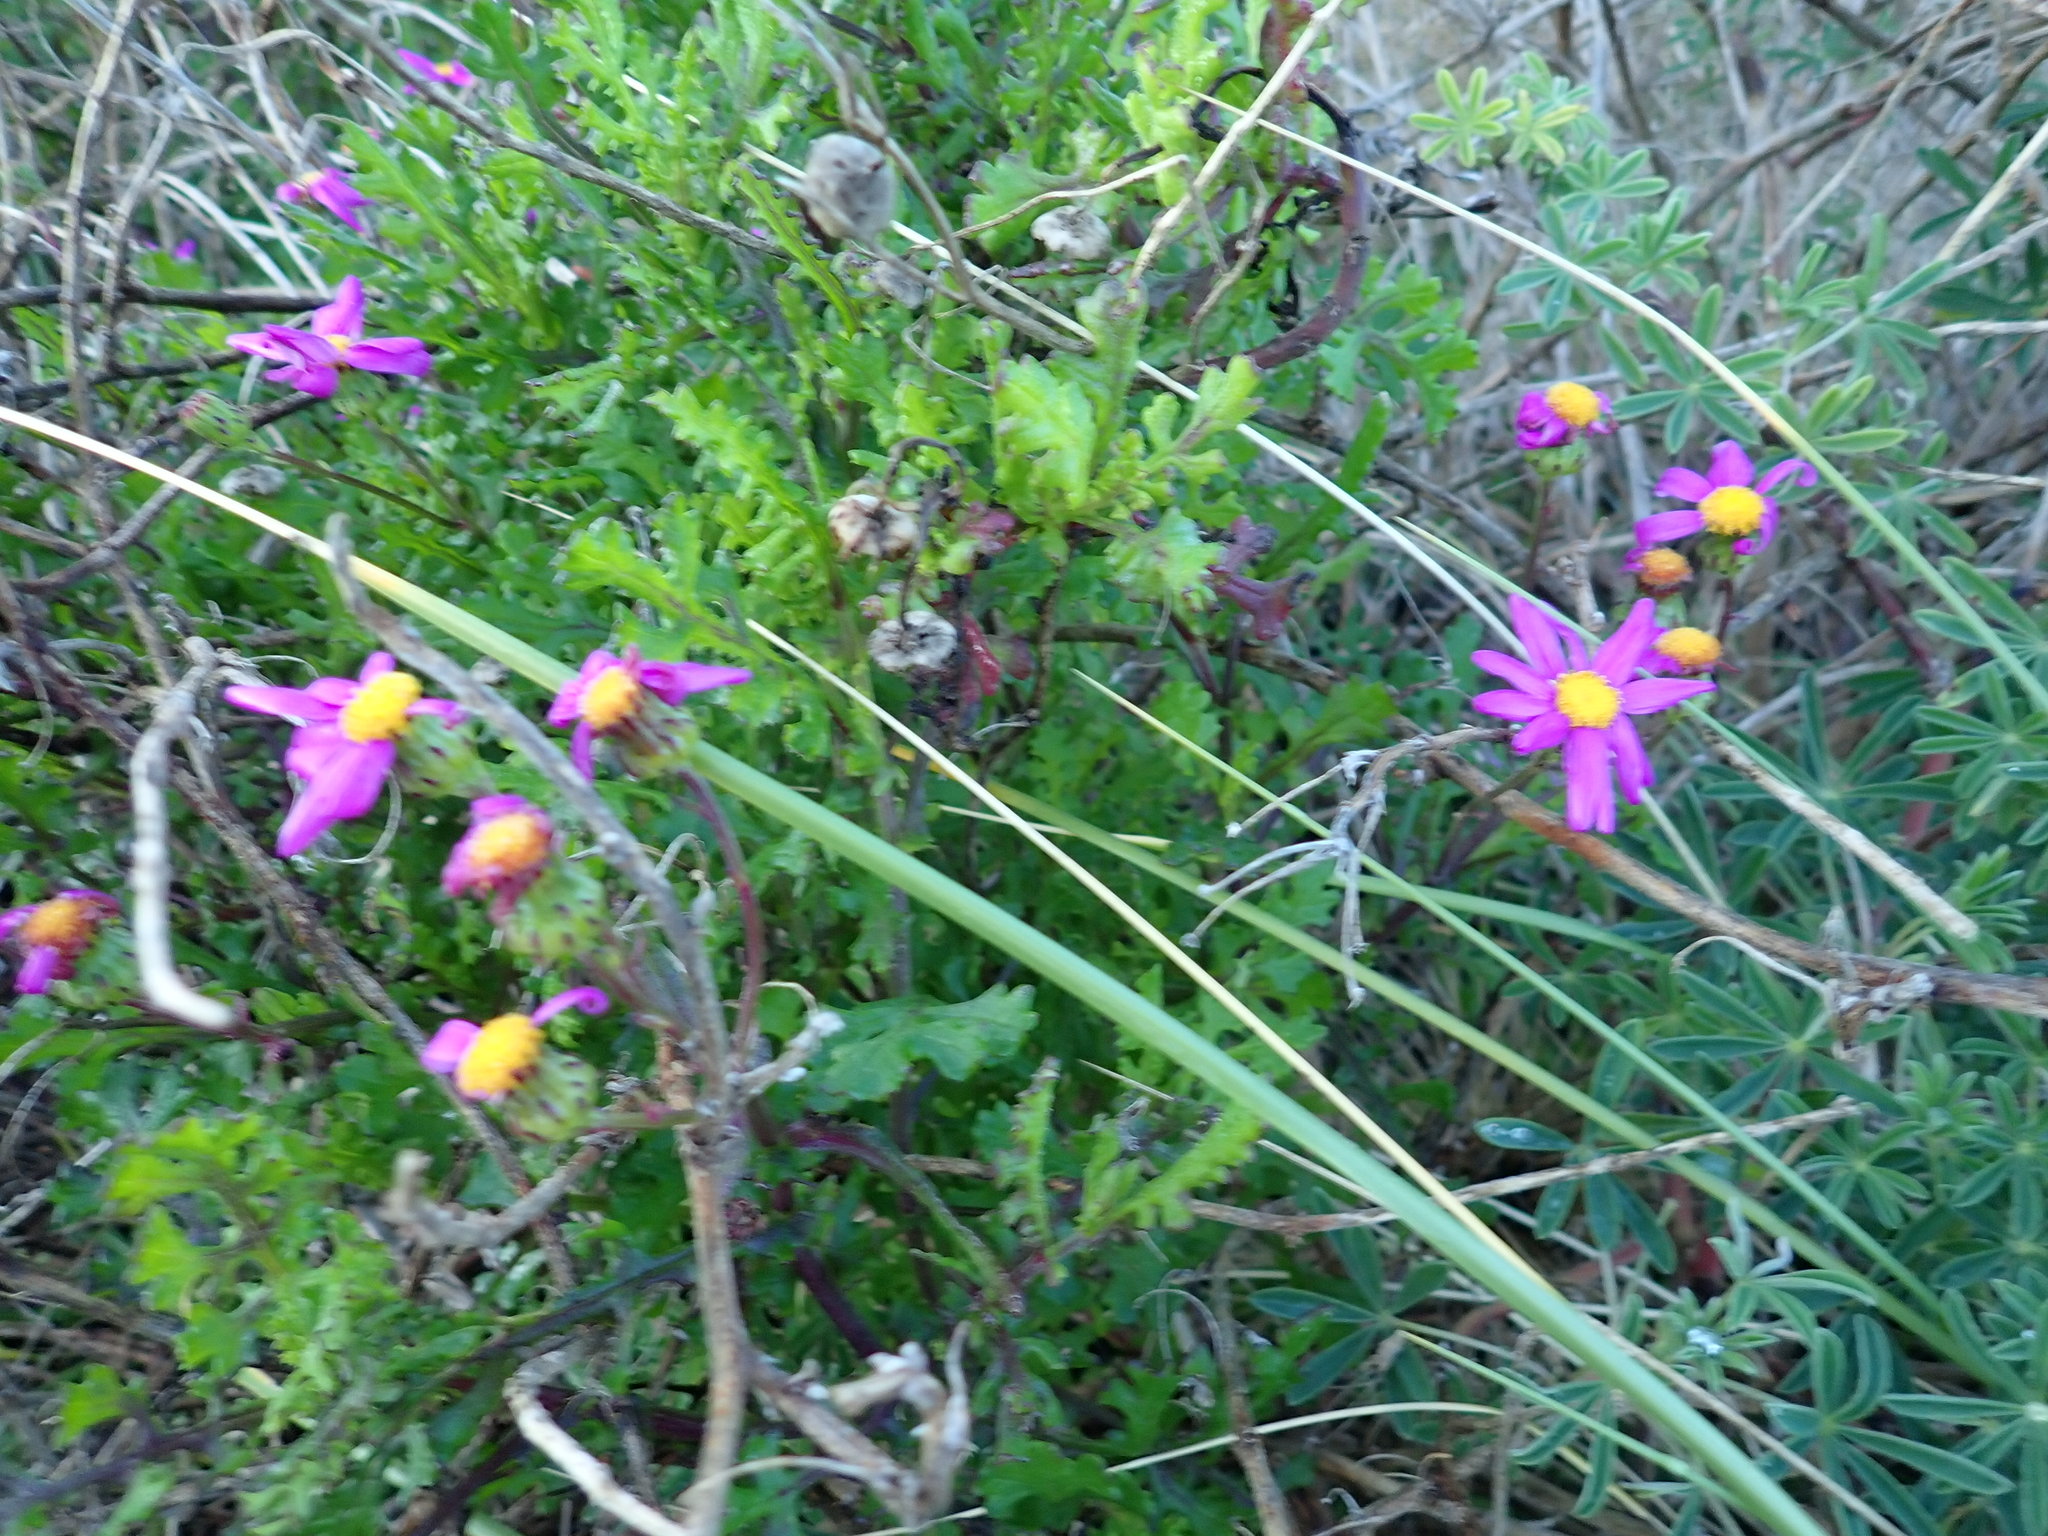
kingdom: Plantae
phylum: Tracheophyta
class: Magnoliopsida
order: Asterales
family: Asteraceae
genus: Senecio
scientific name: Senecio elegans
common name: Purple groundsel
